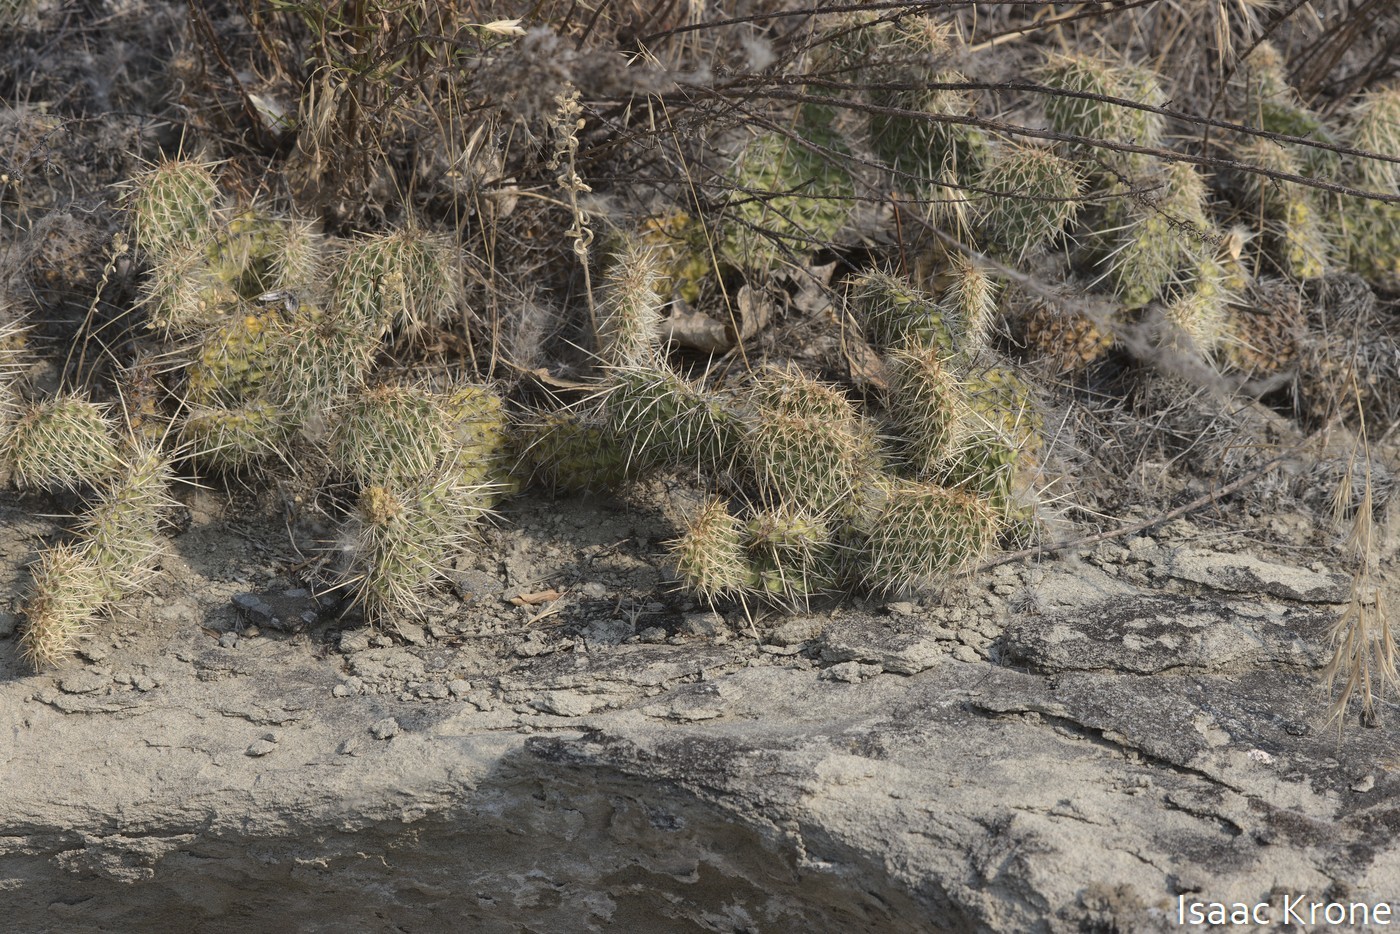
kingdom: Plantae
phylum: Tracheophyta
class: Magnoliopsida
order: Caryophyllales
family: Cactaceae
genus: Opuntia
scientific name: Opuntia polyacantha
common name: Plains prickly-pear
